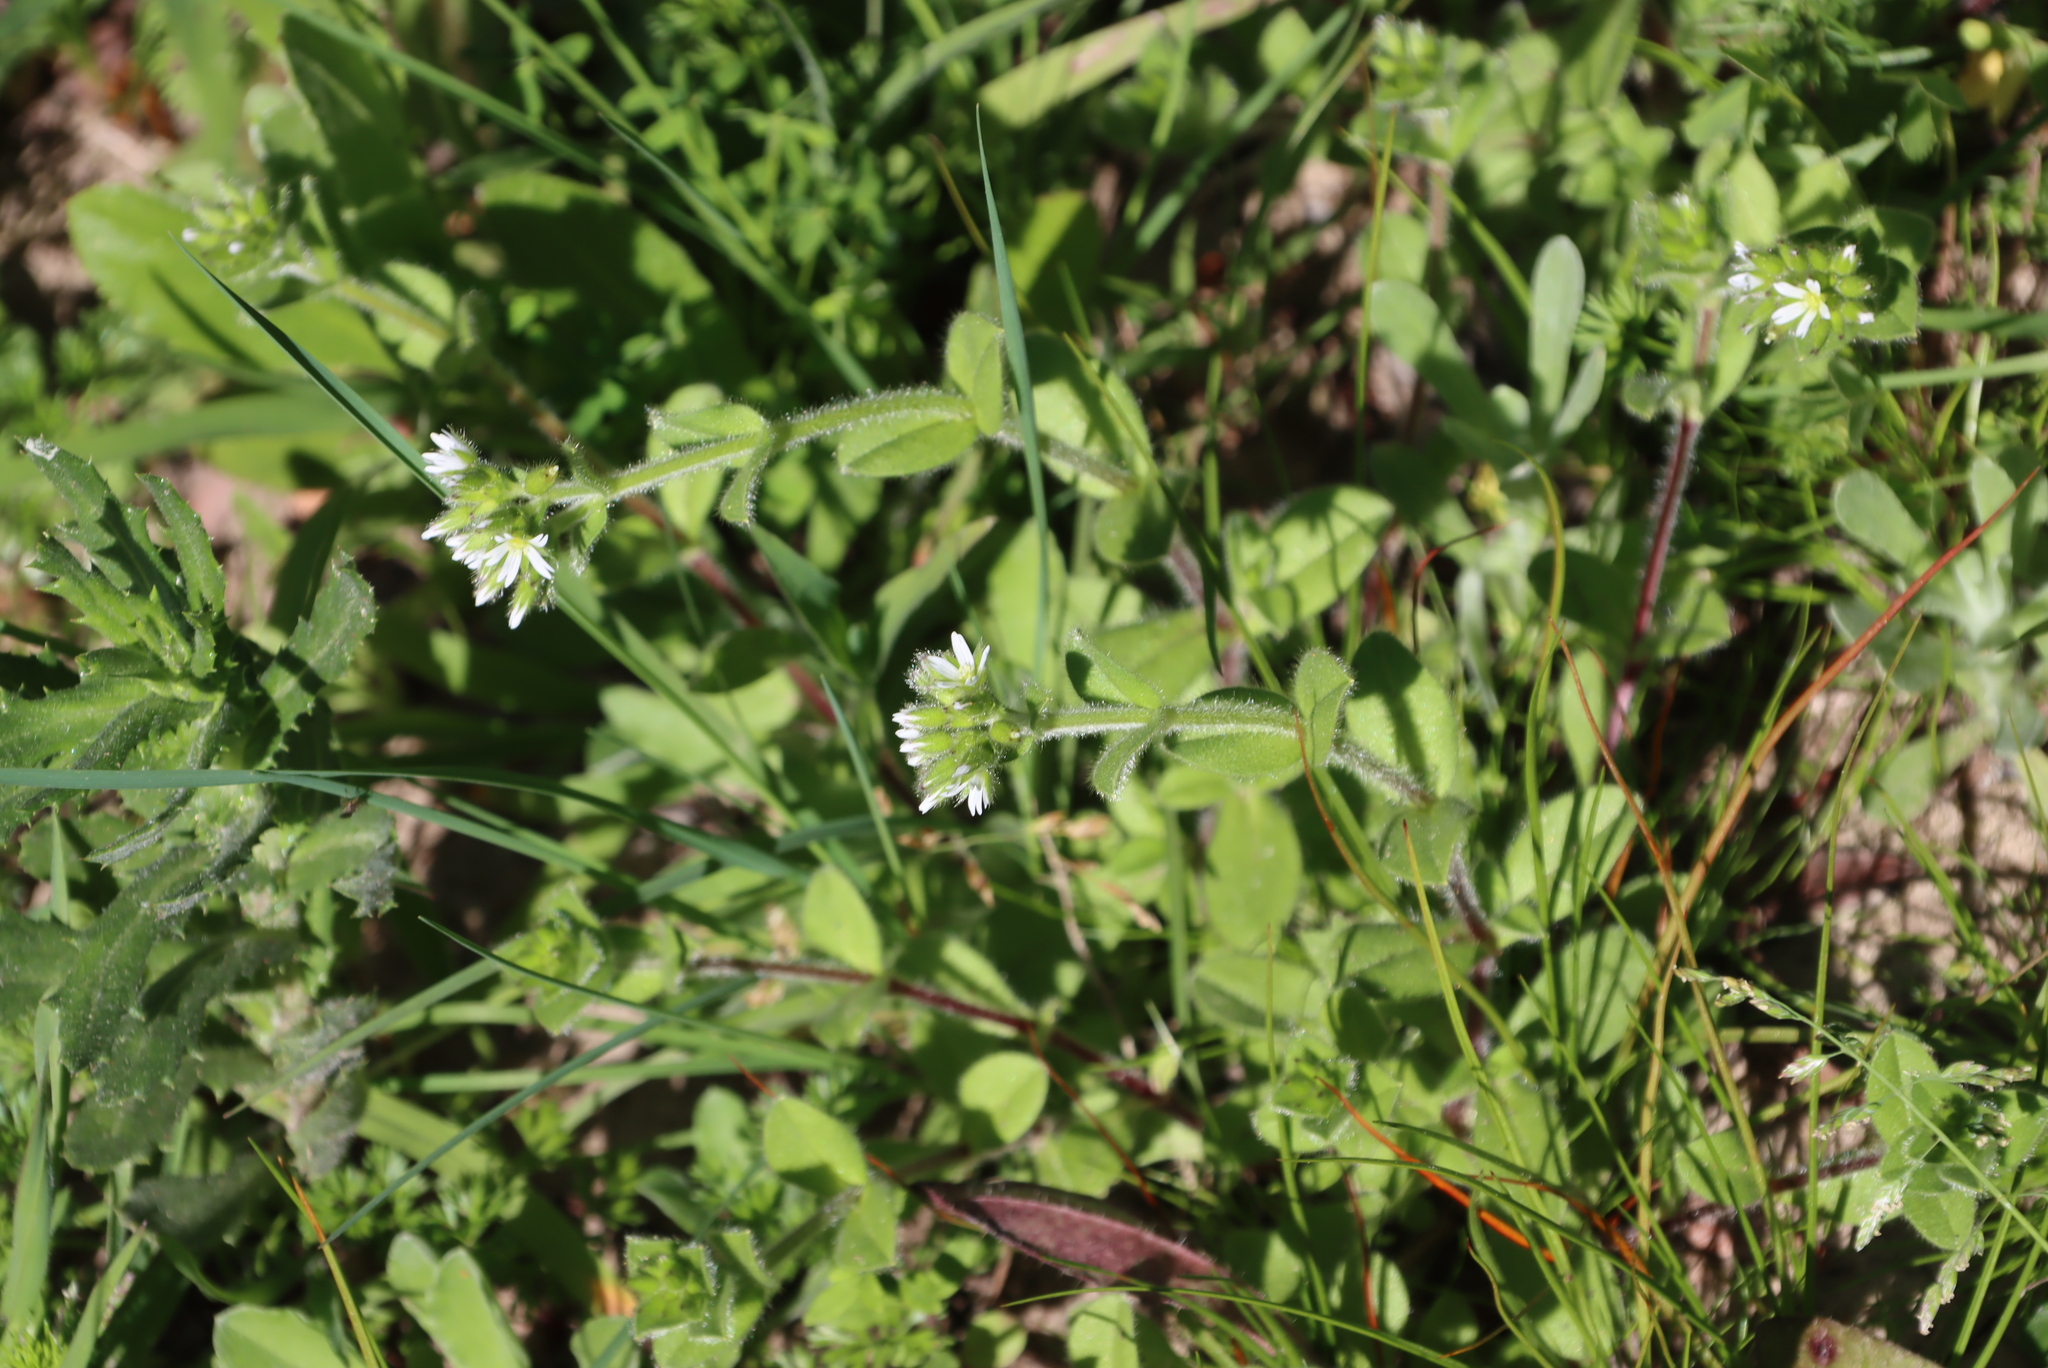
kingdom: Plantae
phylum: Tracheophyta
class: Magnoliopsida
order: Caryophyllales
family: Caryophyllaceae
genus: Cerastium
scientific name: Cerastium glomeratum
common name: Sticky chickweed
